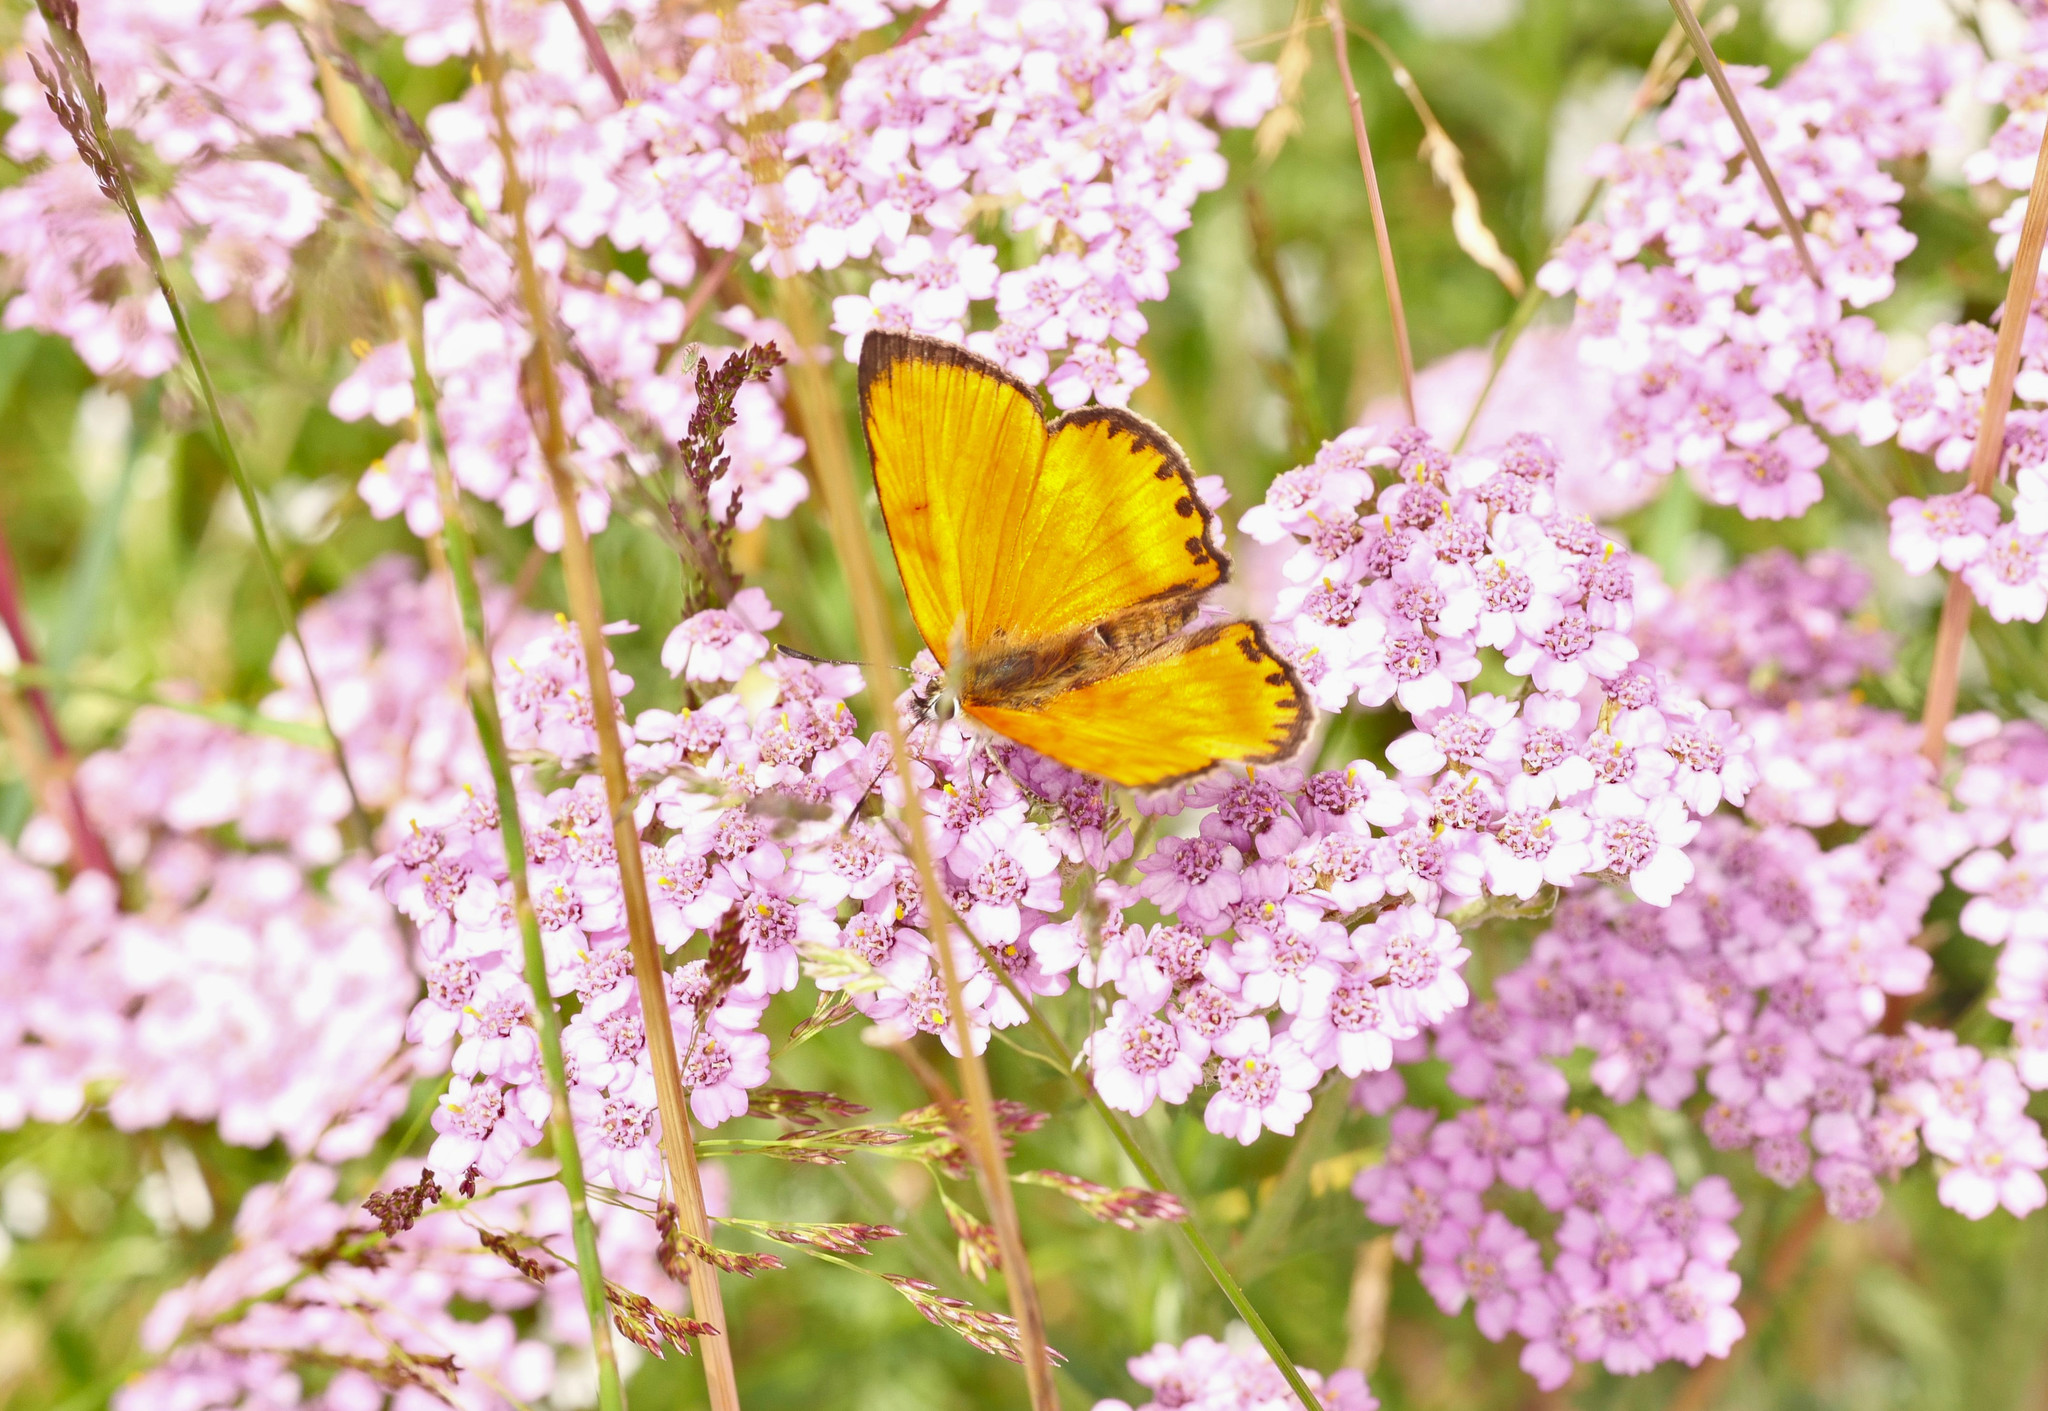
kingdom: Animalia
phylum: Arthropoda
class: Insecta
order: Lepidoptera
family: Lycaenidae
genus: Lycaena
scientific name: Lycaena virgaureae
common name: Scarce copper
